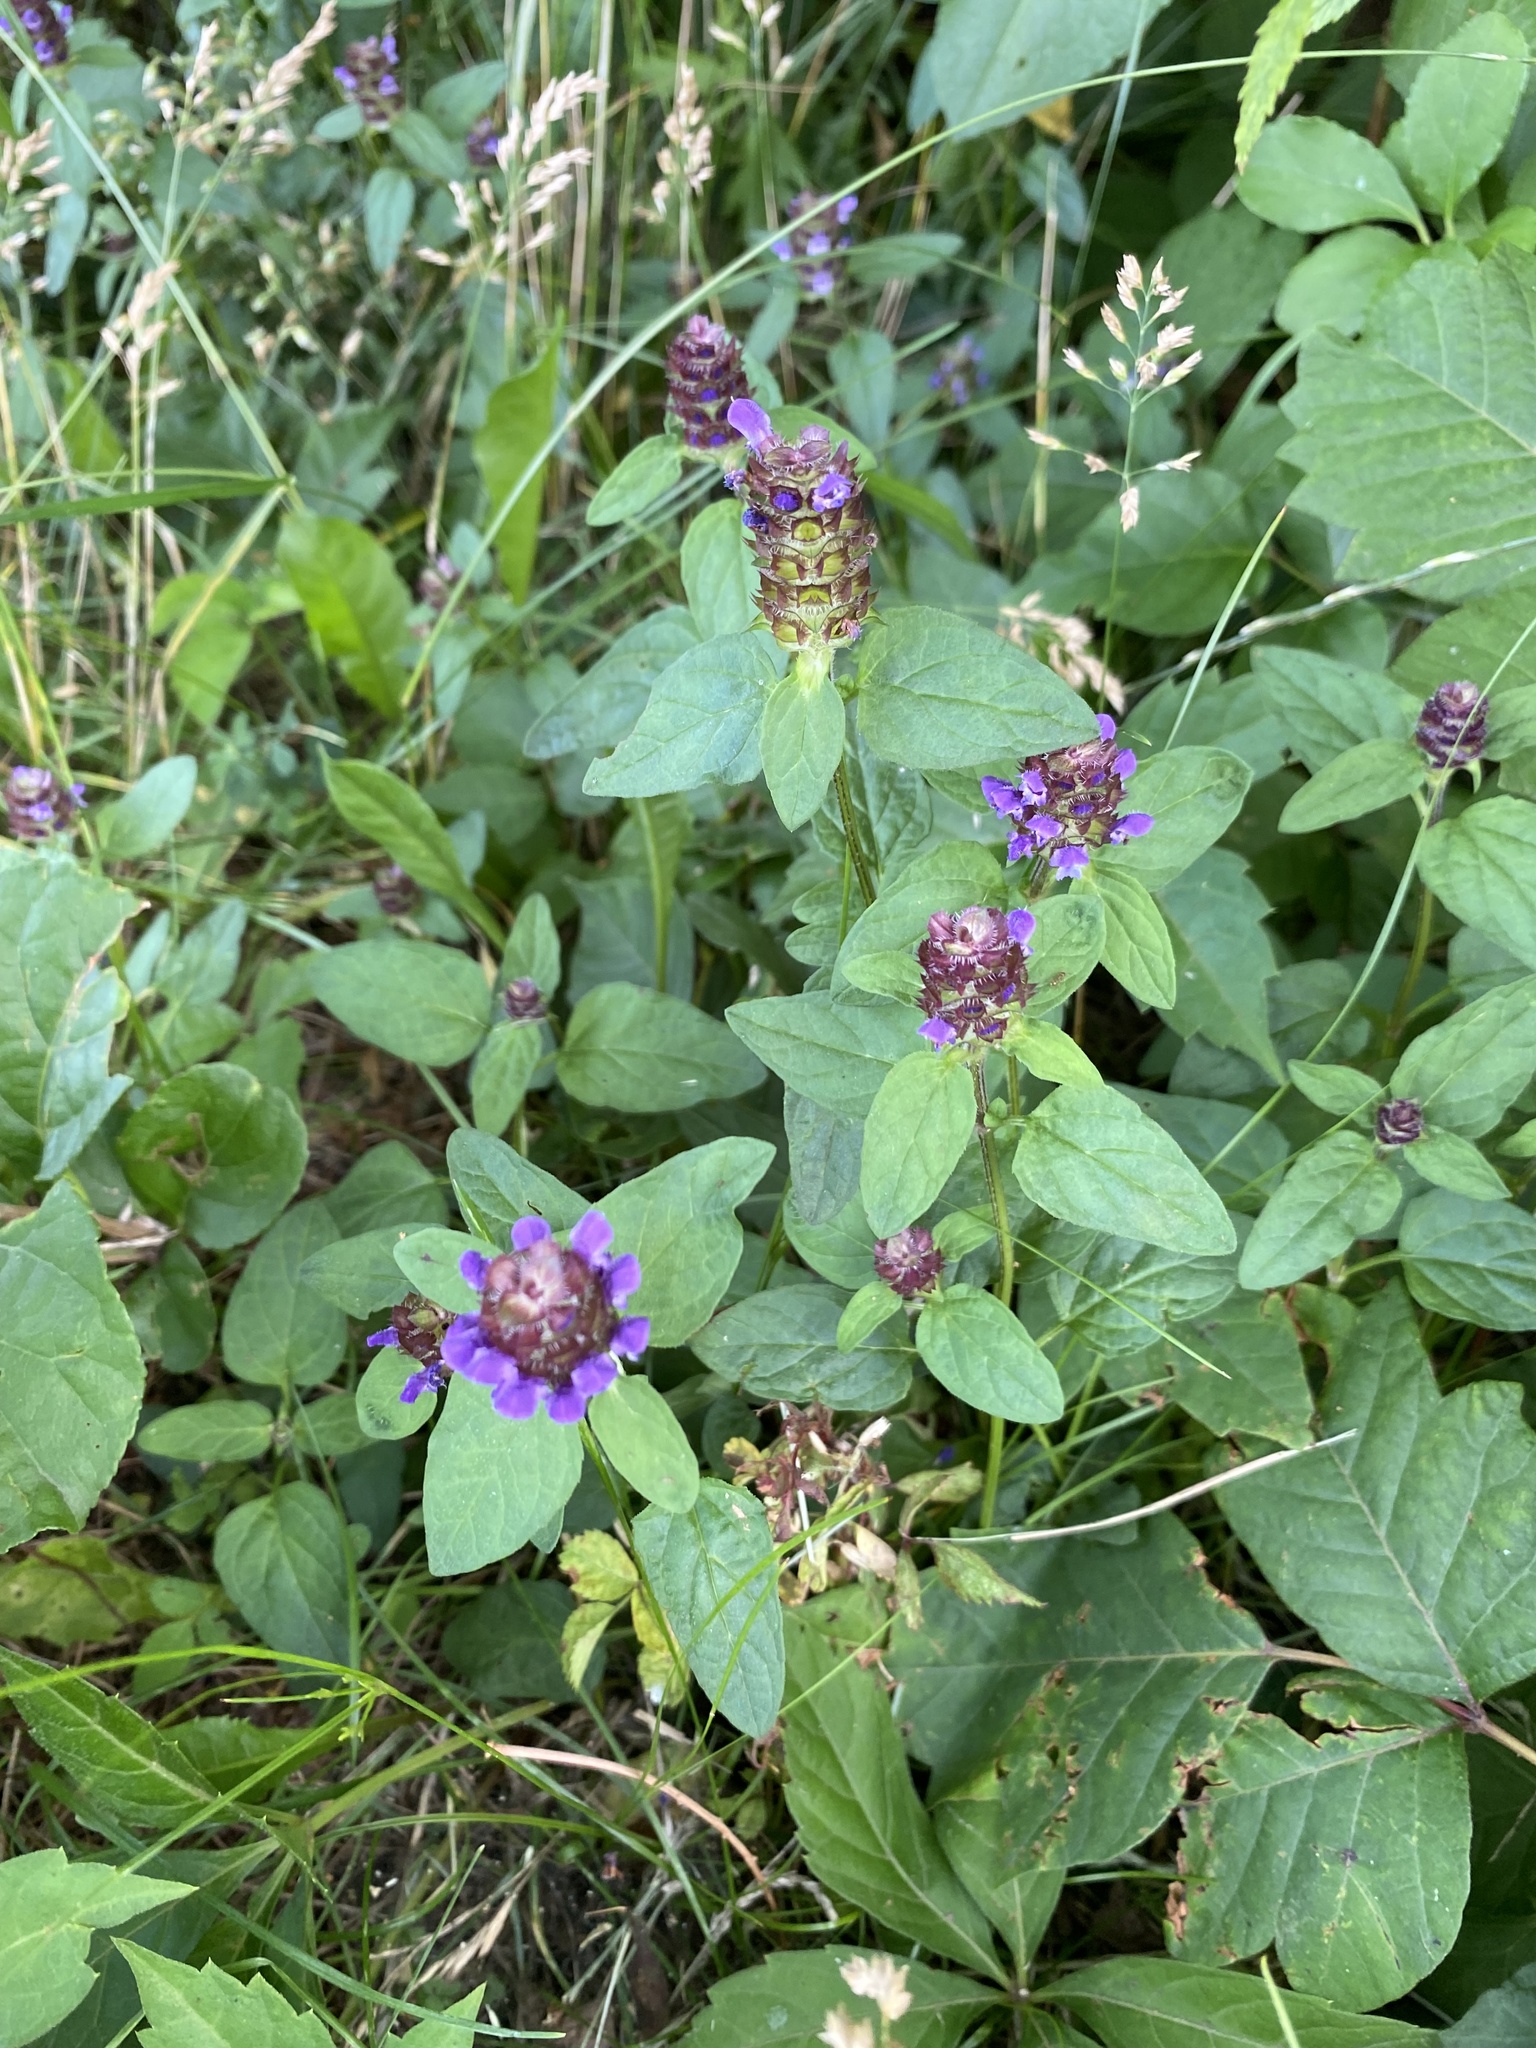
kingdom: Plantae
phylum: Tracheophyta
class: Magnoliopsida
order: Lamiales
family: Lamiaceae
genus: Prunella
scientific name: Prunella vulgaris
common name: Heal-all
